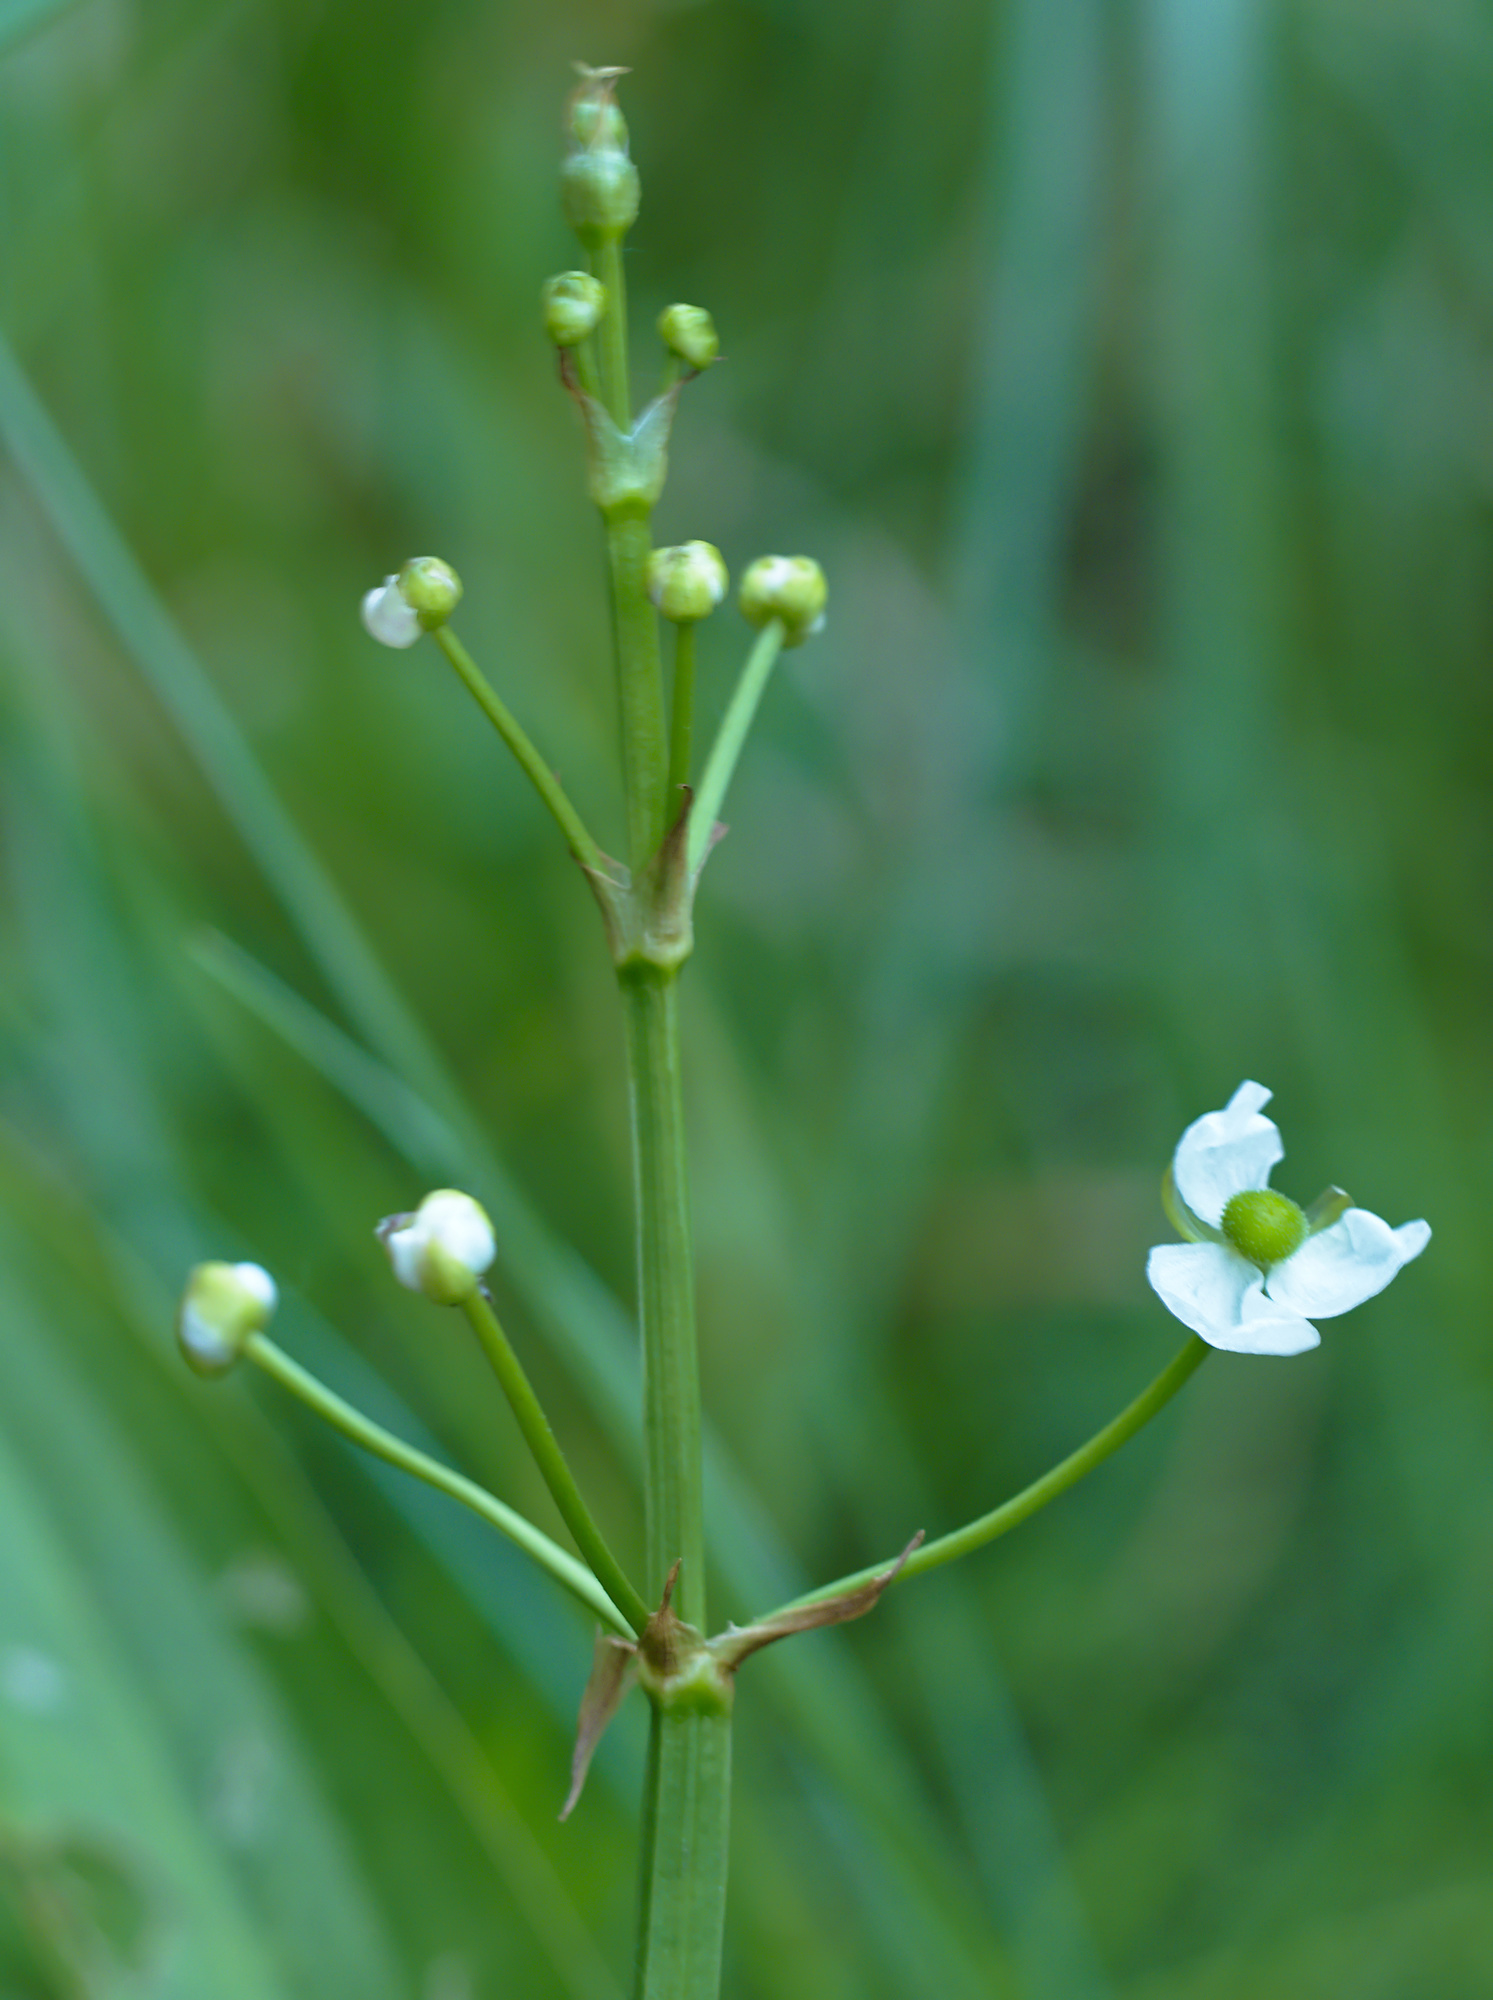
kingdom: Plantae
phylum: Tracheophyta
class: Liliopsida
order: Alismatales
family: Alismataceae
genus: Alisma
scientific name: Alisma plantago-aquatica
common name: Water-plantain
